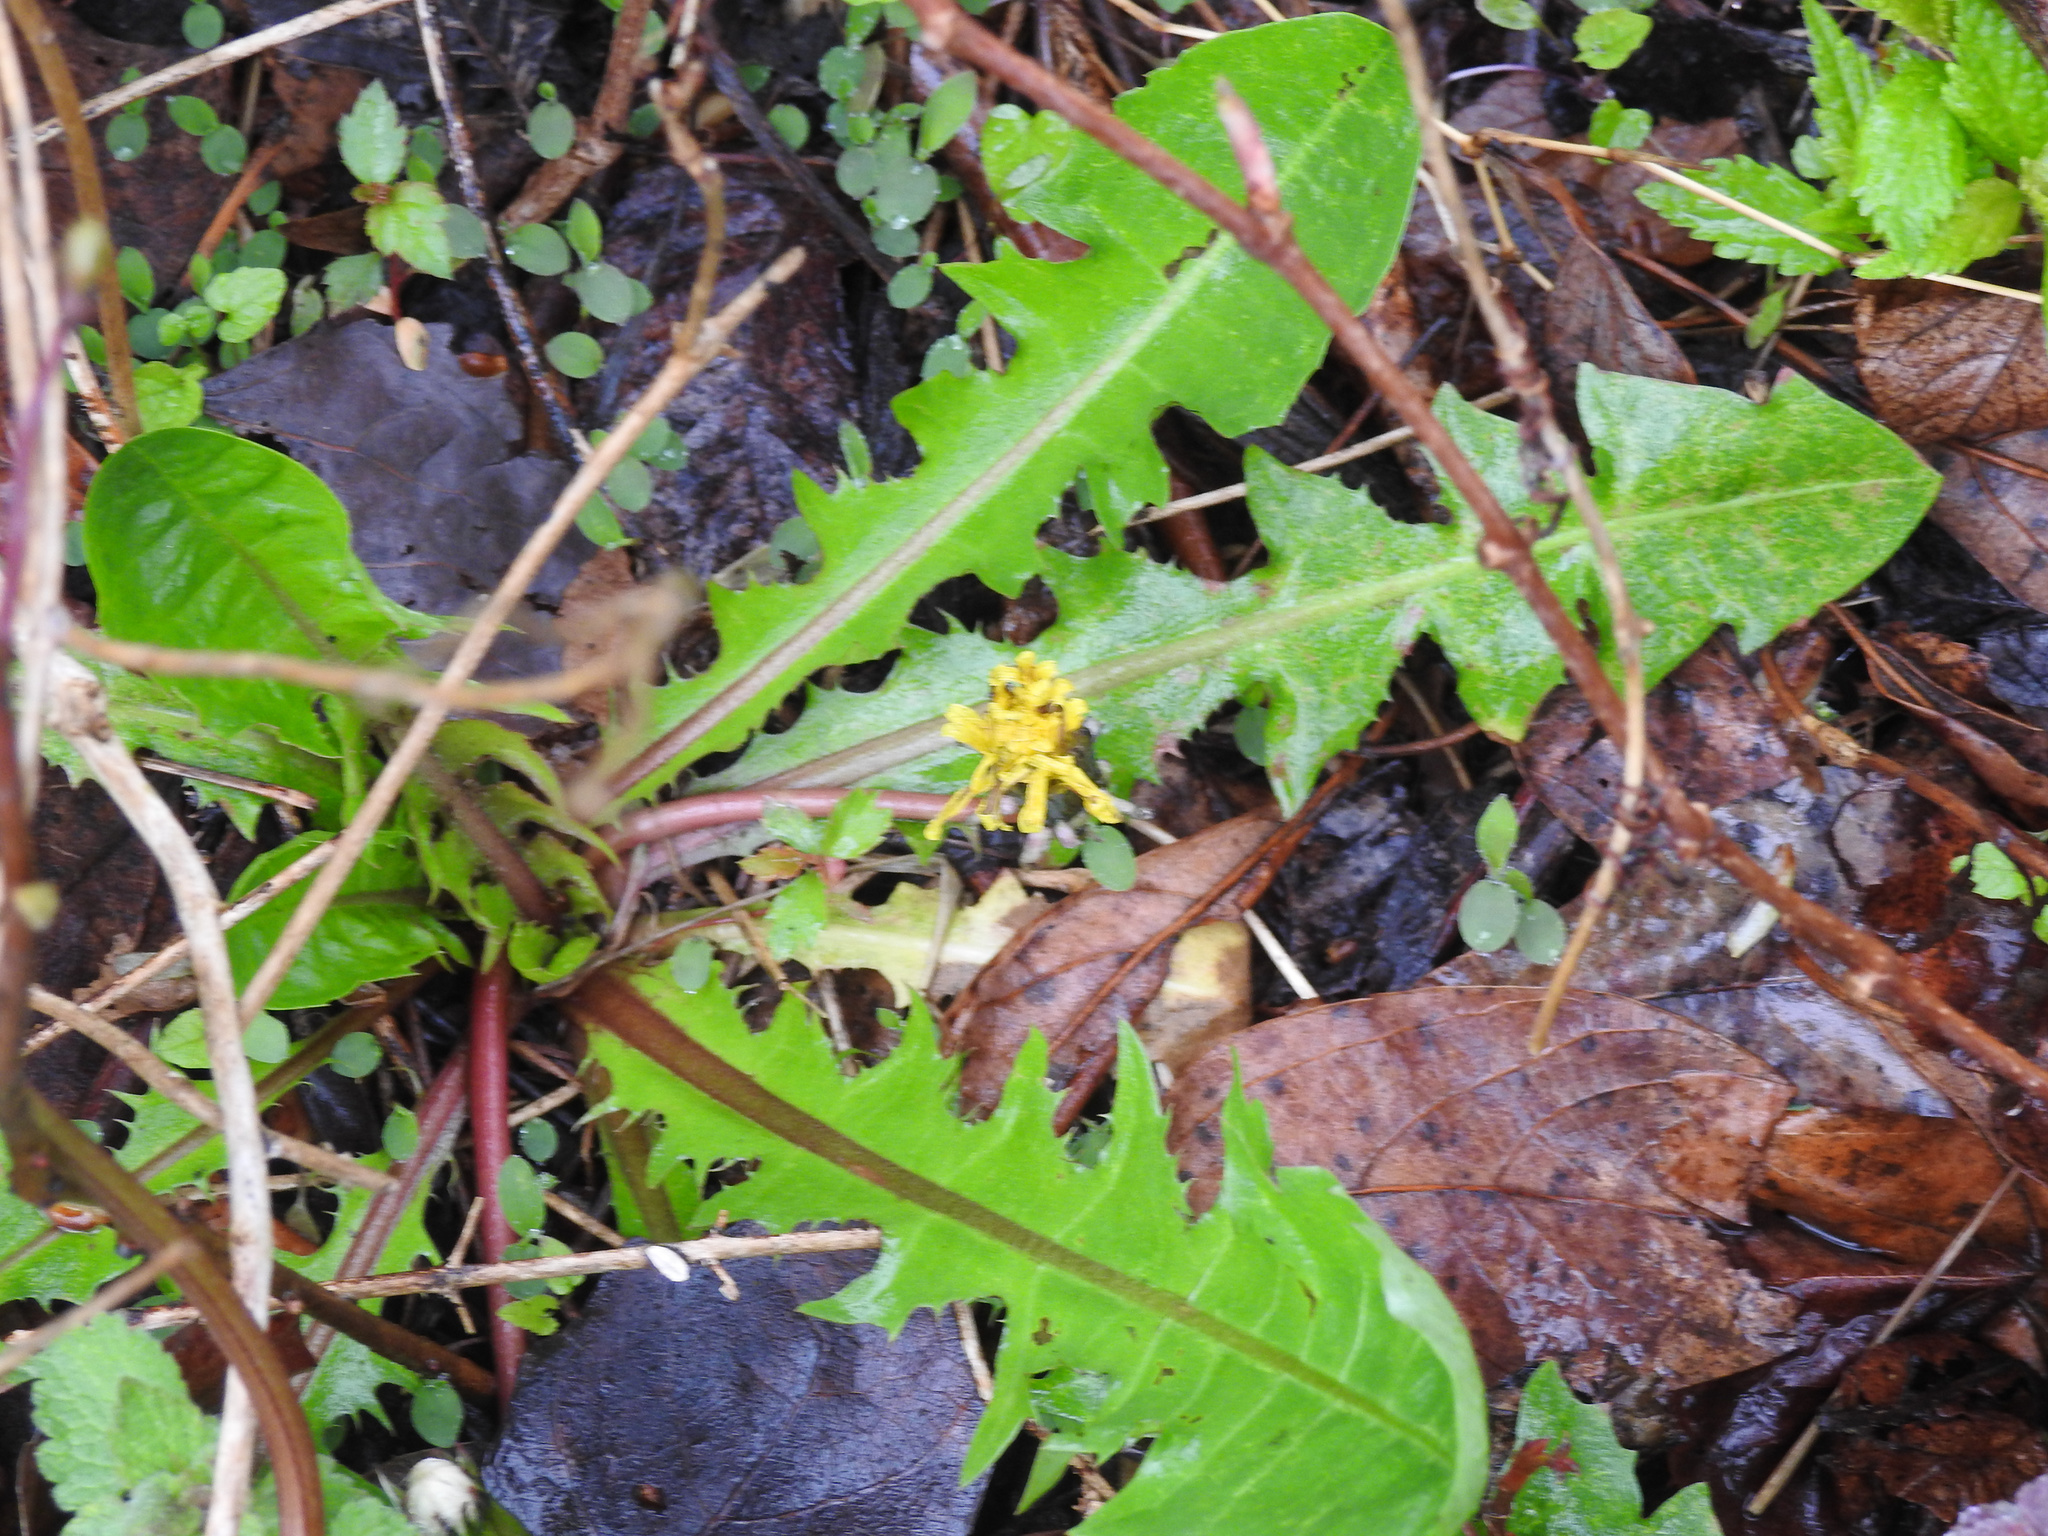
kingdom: Plantae
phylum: Tracheophyta
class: Magnoliopsida
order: Asterales
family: Asteraceae
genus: Taraxacum
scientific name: Taraxacum officinale
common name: Common dandelion
